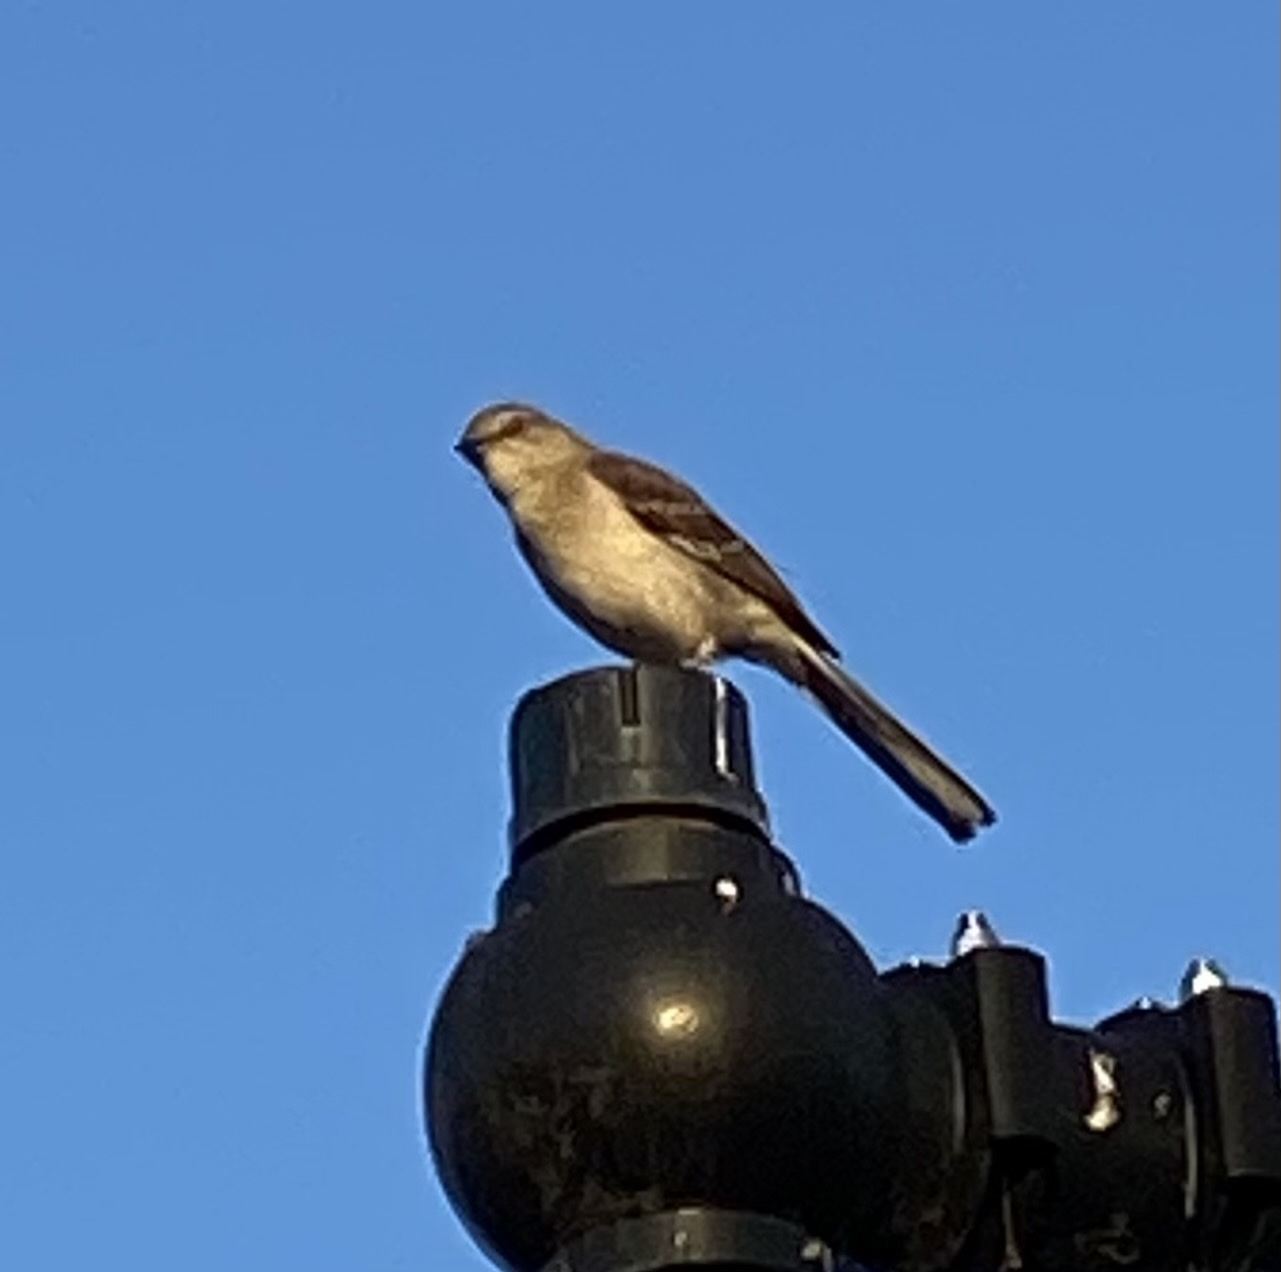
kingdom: Animalia
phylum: Chordata
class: Aves
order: Passeriformes
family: Mimidae
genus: Mimus
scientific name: Mimus polyglottos
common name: Northern mockingbird
